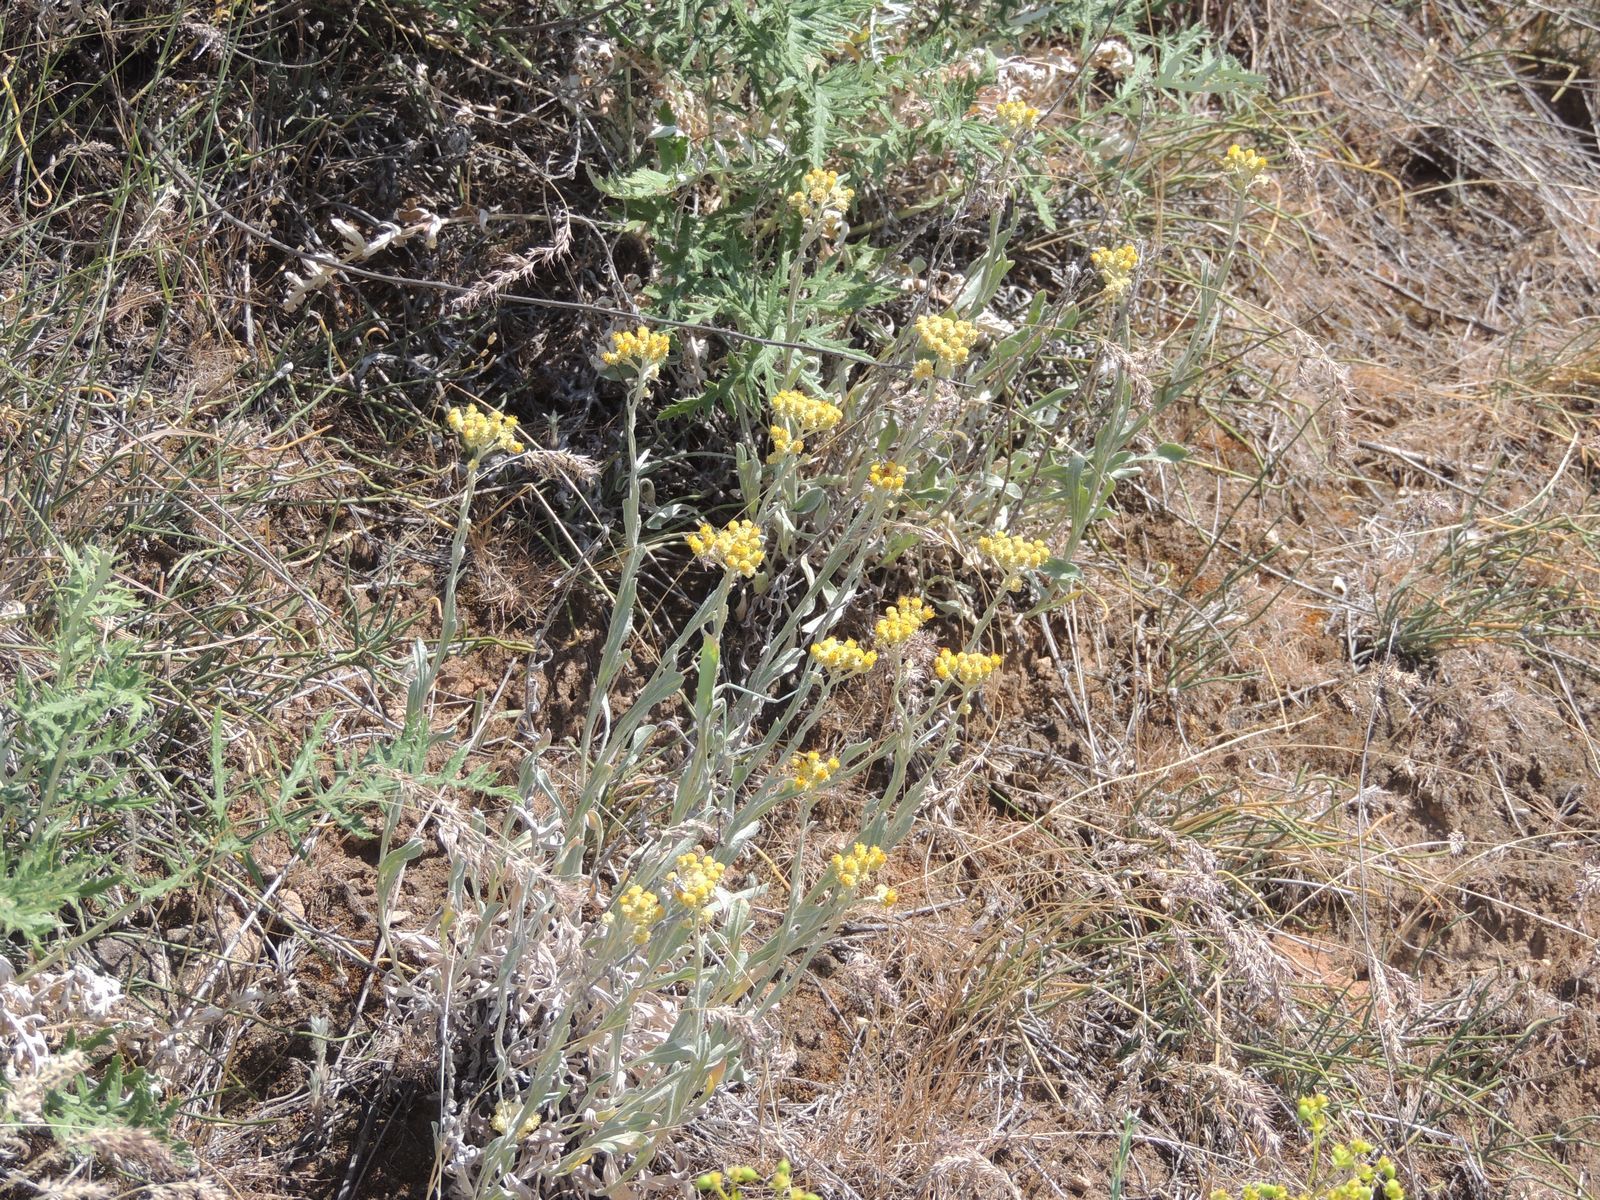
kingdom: Plantae
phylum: Tracheophyta
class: Magnoliopsida
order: Asterales
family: Asteraceae
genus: Helichrysum
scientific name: Helichrysum arenarium
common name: Strawflower
